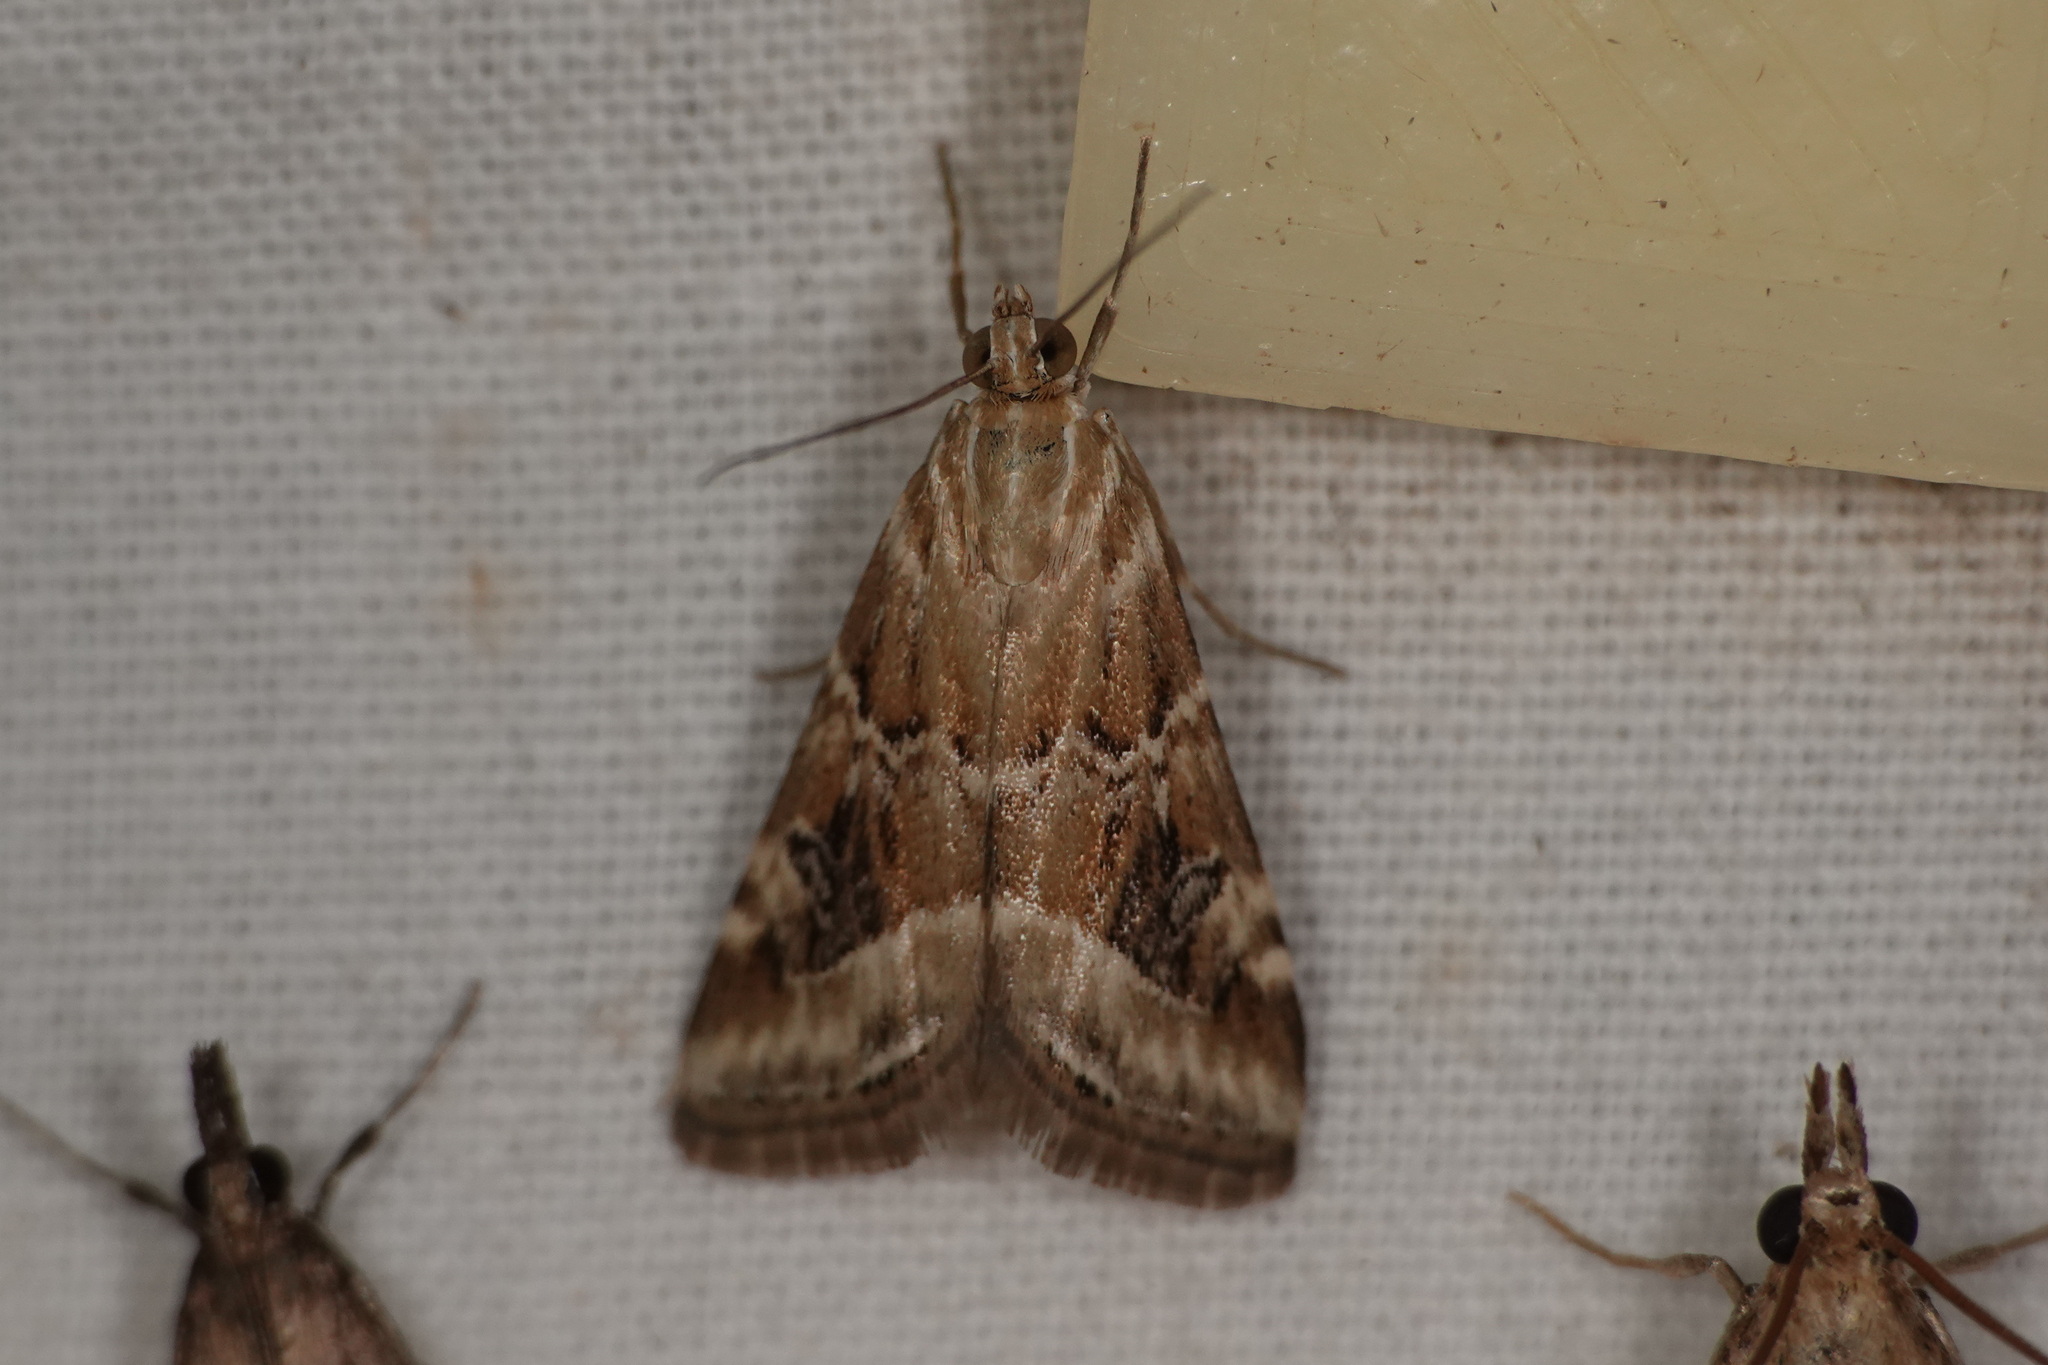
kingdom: Animalia
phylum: Arthropoda
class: Insecta
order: Lepidoptera
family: Crambidae
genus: Hellula
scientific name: Hellula hydralis
